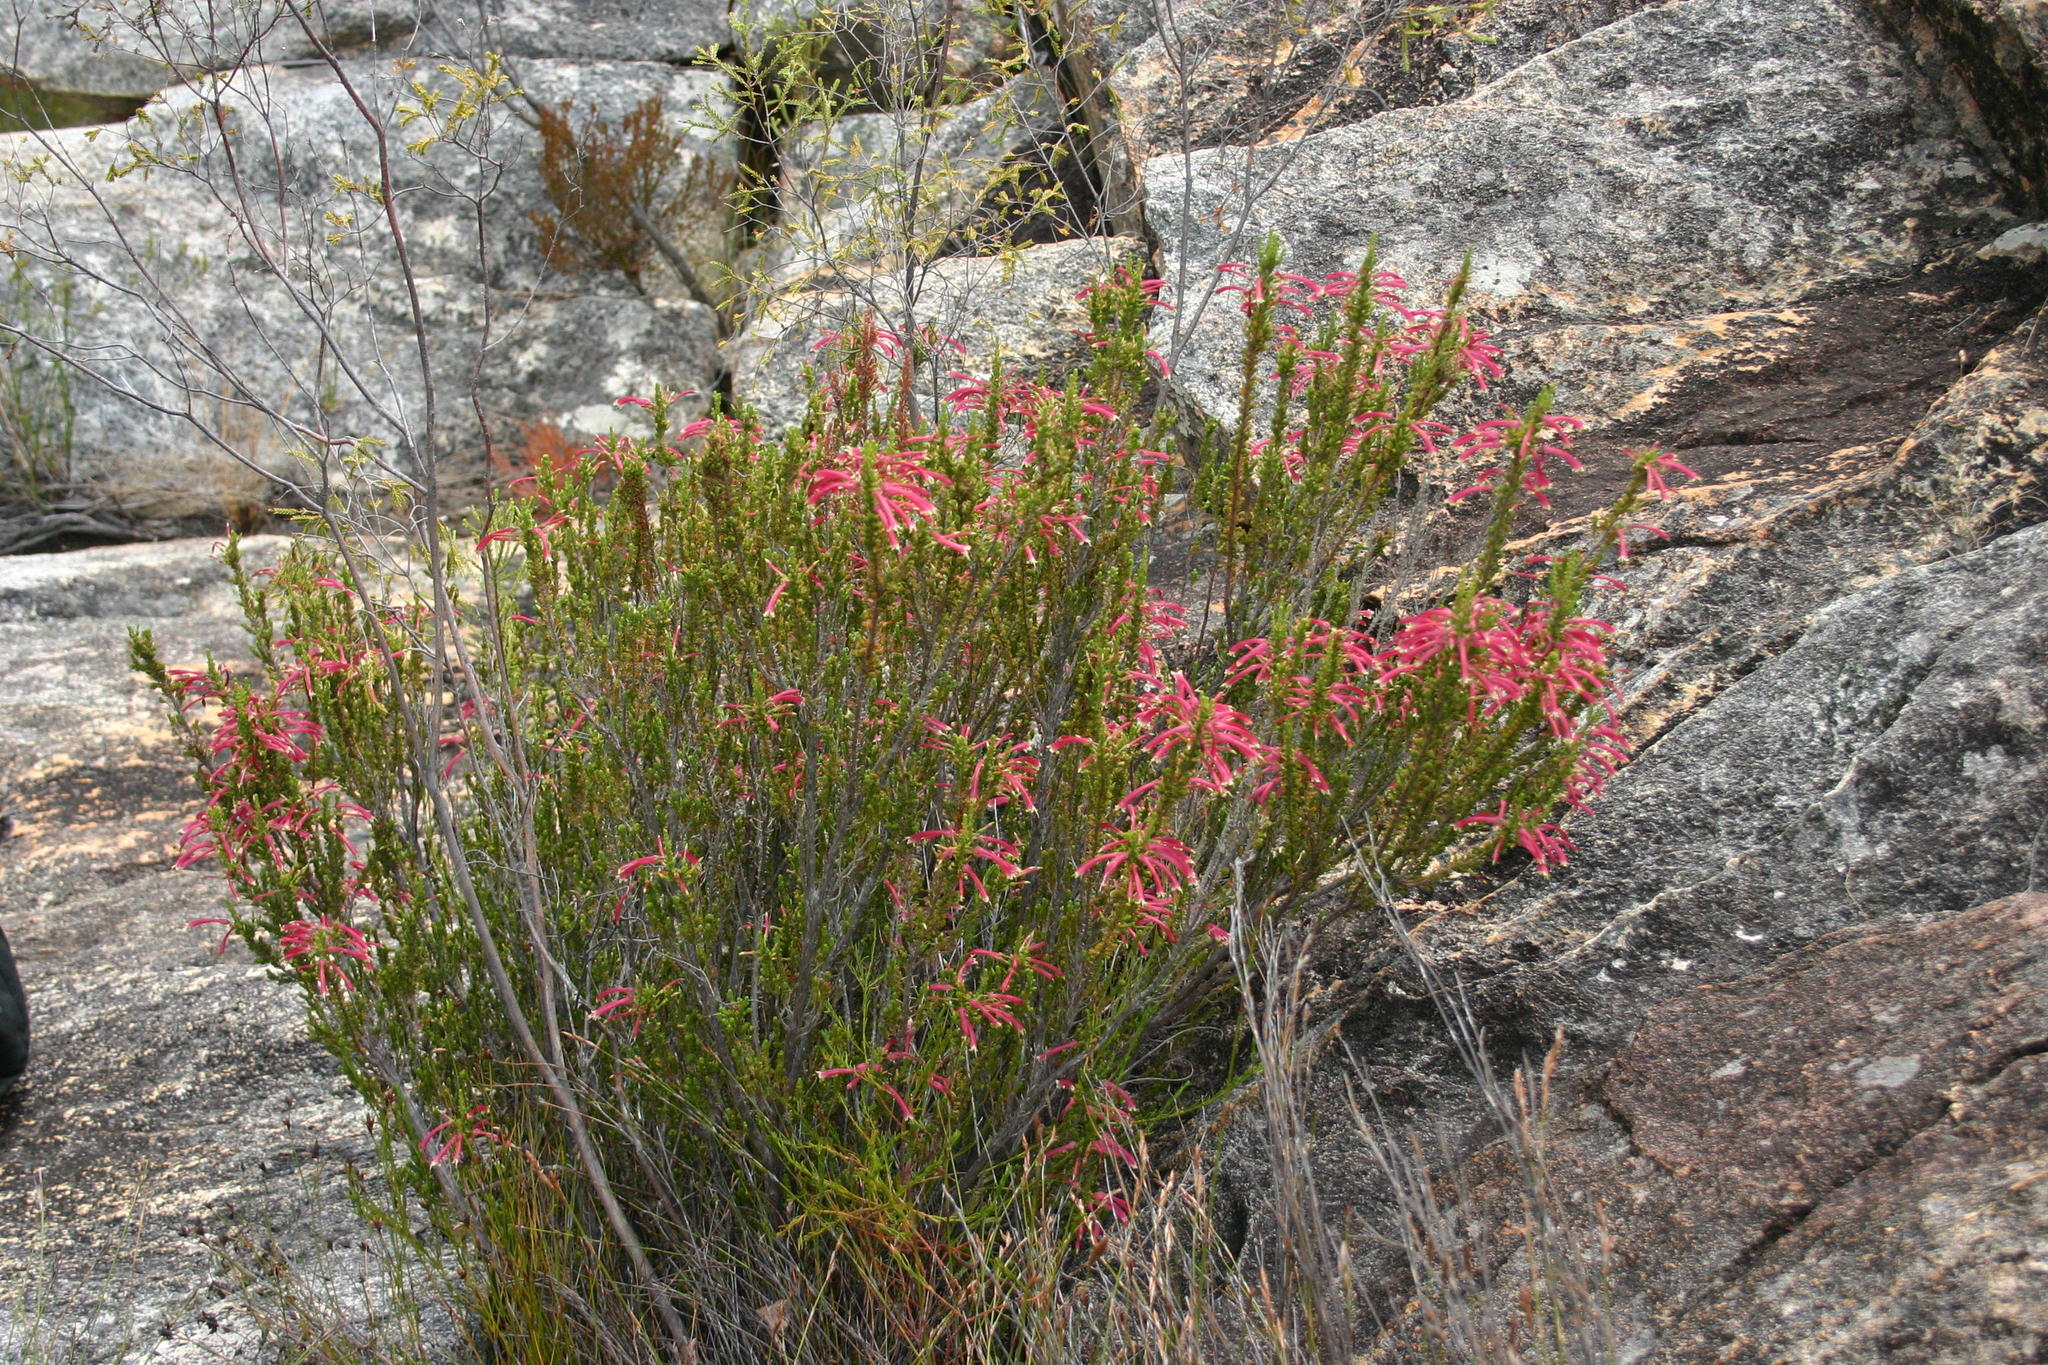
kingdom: Plantae
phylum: Tracheophyta
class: Magnoliopsida
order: Ericales
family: Ericaceae
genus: Erica
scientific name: Erica densifolia
